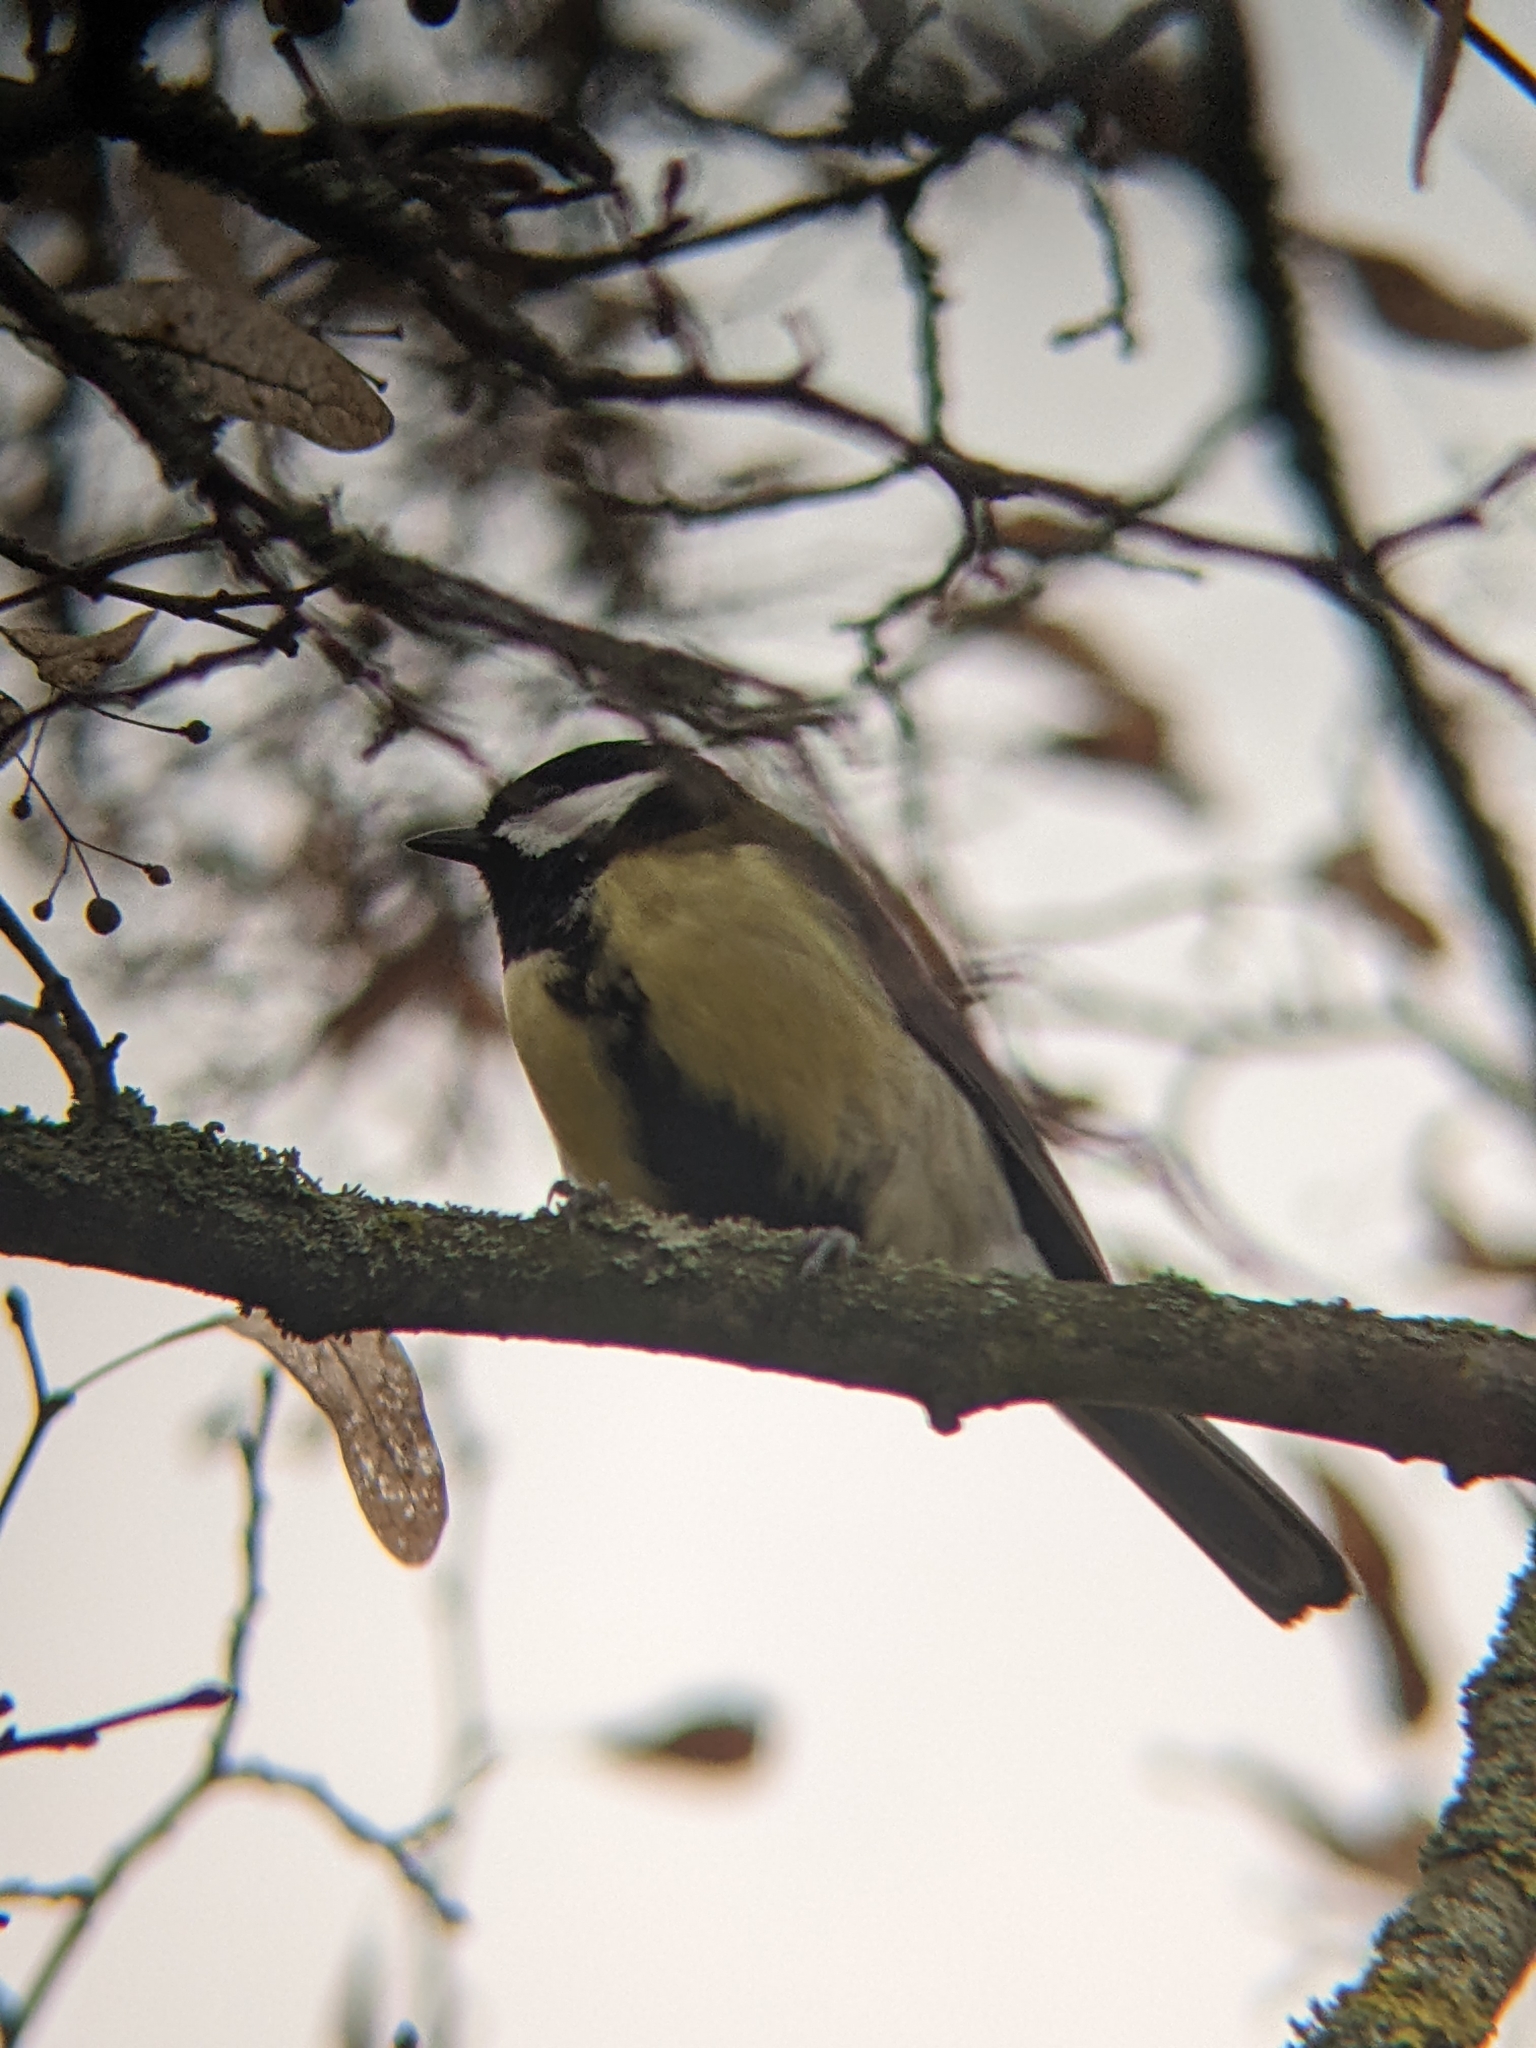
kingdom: Animalia
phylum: Chordata
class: Aves
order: Passeriformes
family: Paridae
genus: Parus
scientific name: Parus major
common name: Great tit
